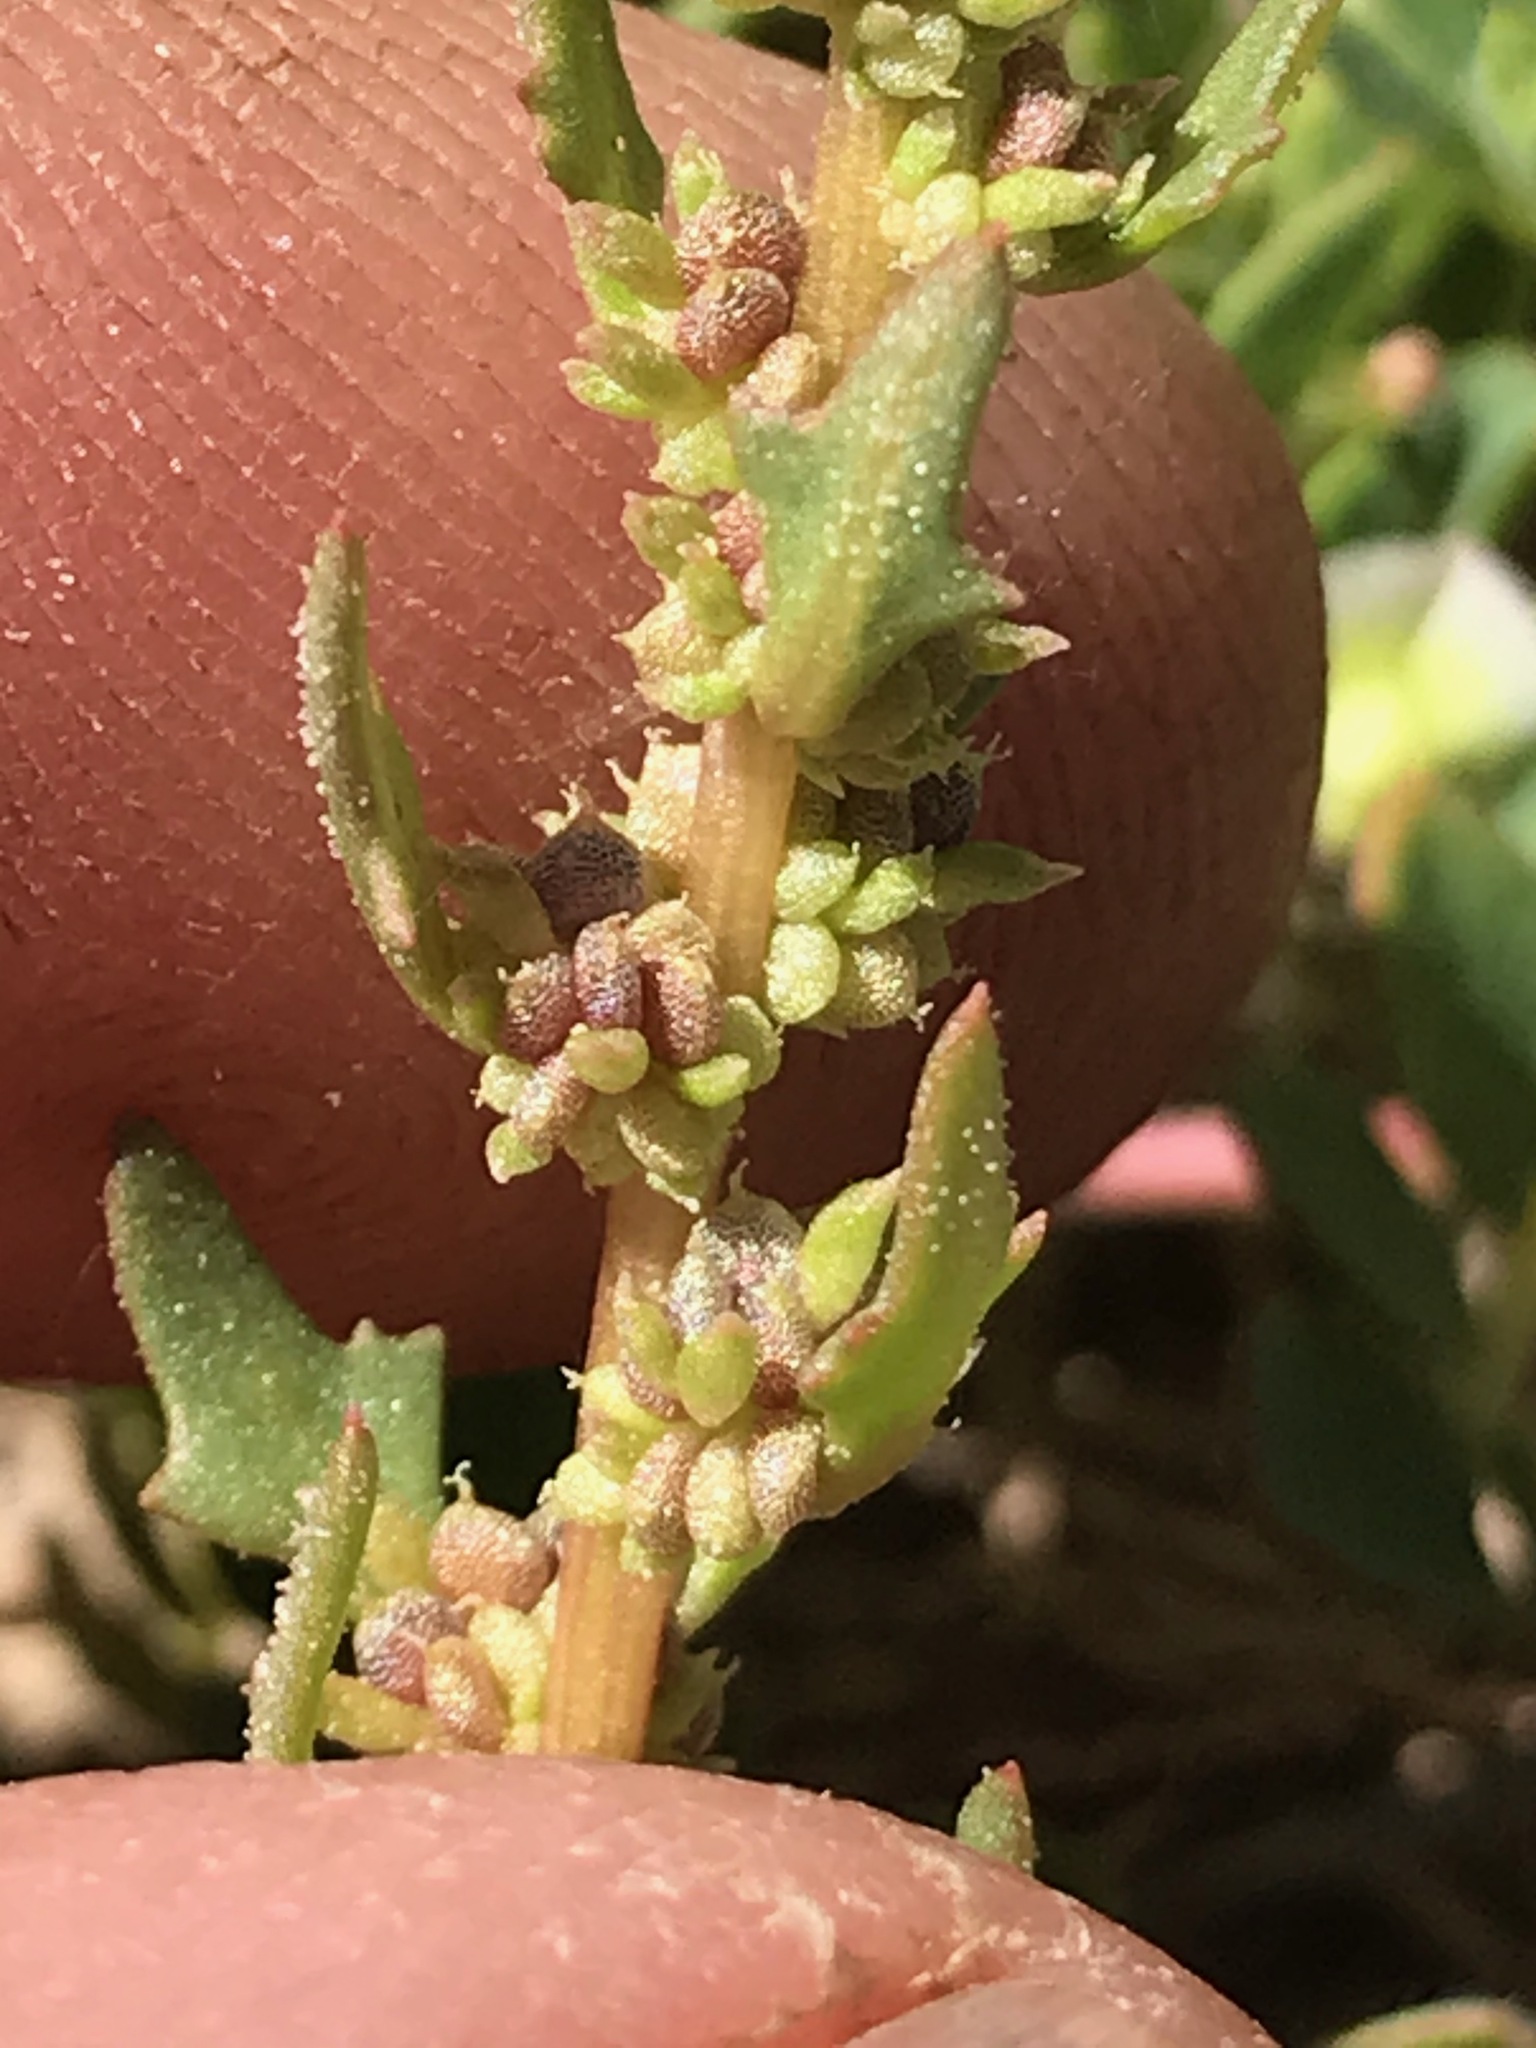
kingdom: Plantae
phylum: Tracheophyta
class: Magnoliopsida
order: Caryophyllales
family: Amaranthaceae
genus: Blitum
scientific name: Blitum nuttallianum
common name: Poverty-weed
